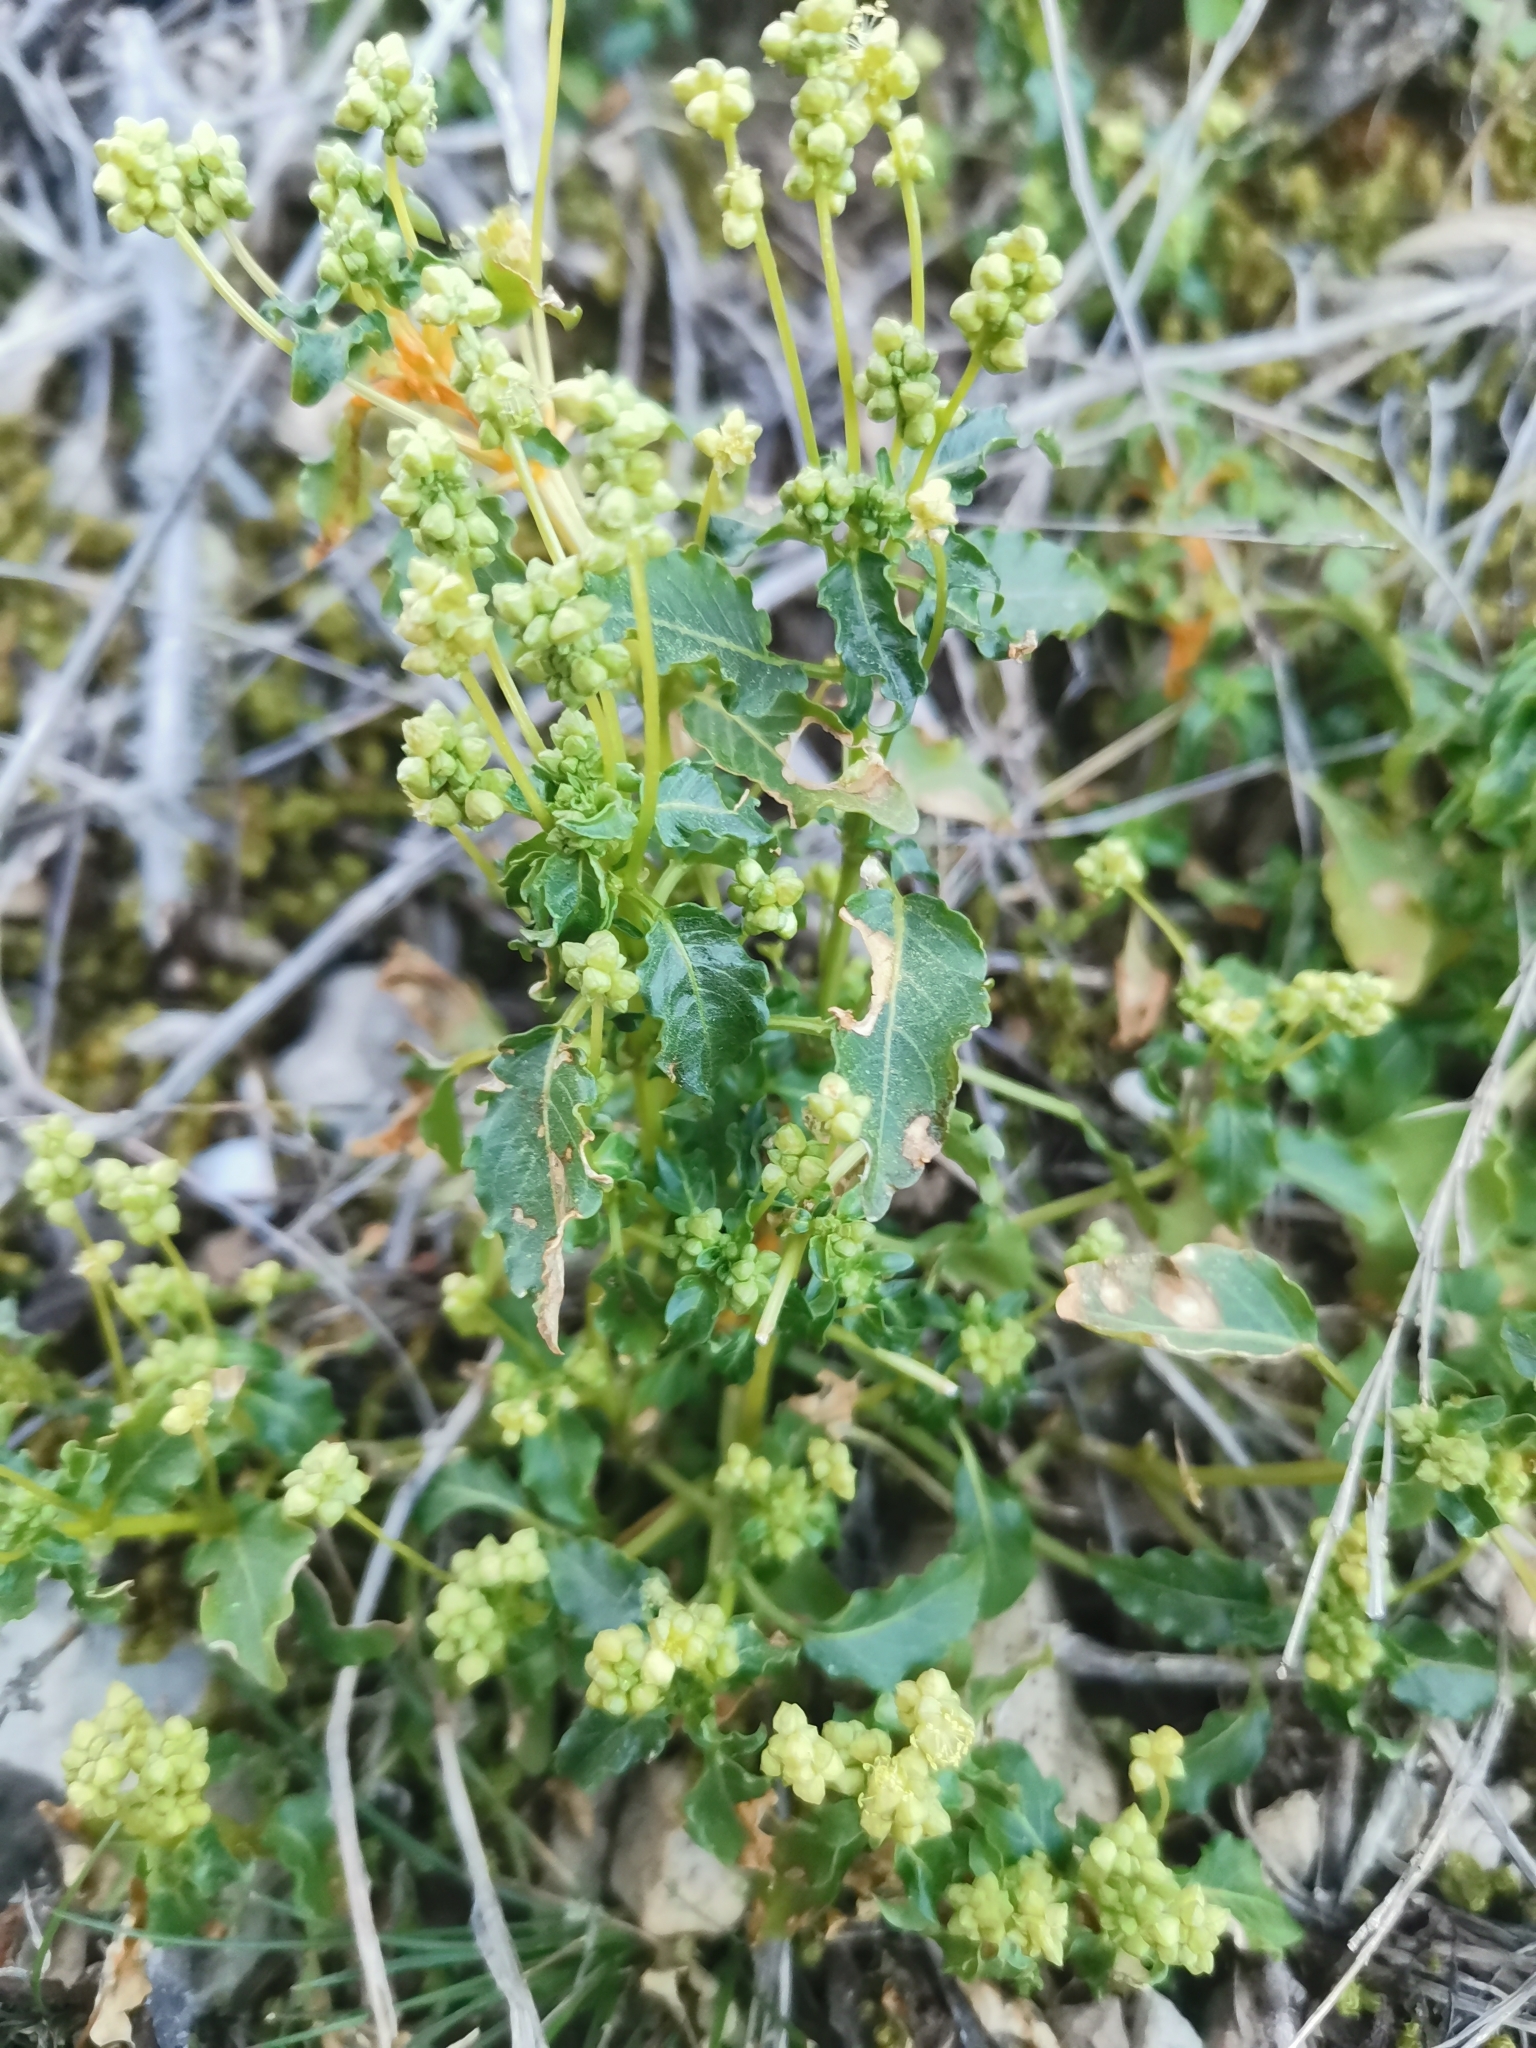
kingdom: Plantae
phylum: Tracheophyta
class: Magnoliopsida
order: Malpighiales
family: Euphorbiaceae
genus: Mercurialis
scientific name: Mercurialis annua
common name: Annual mercury
